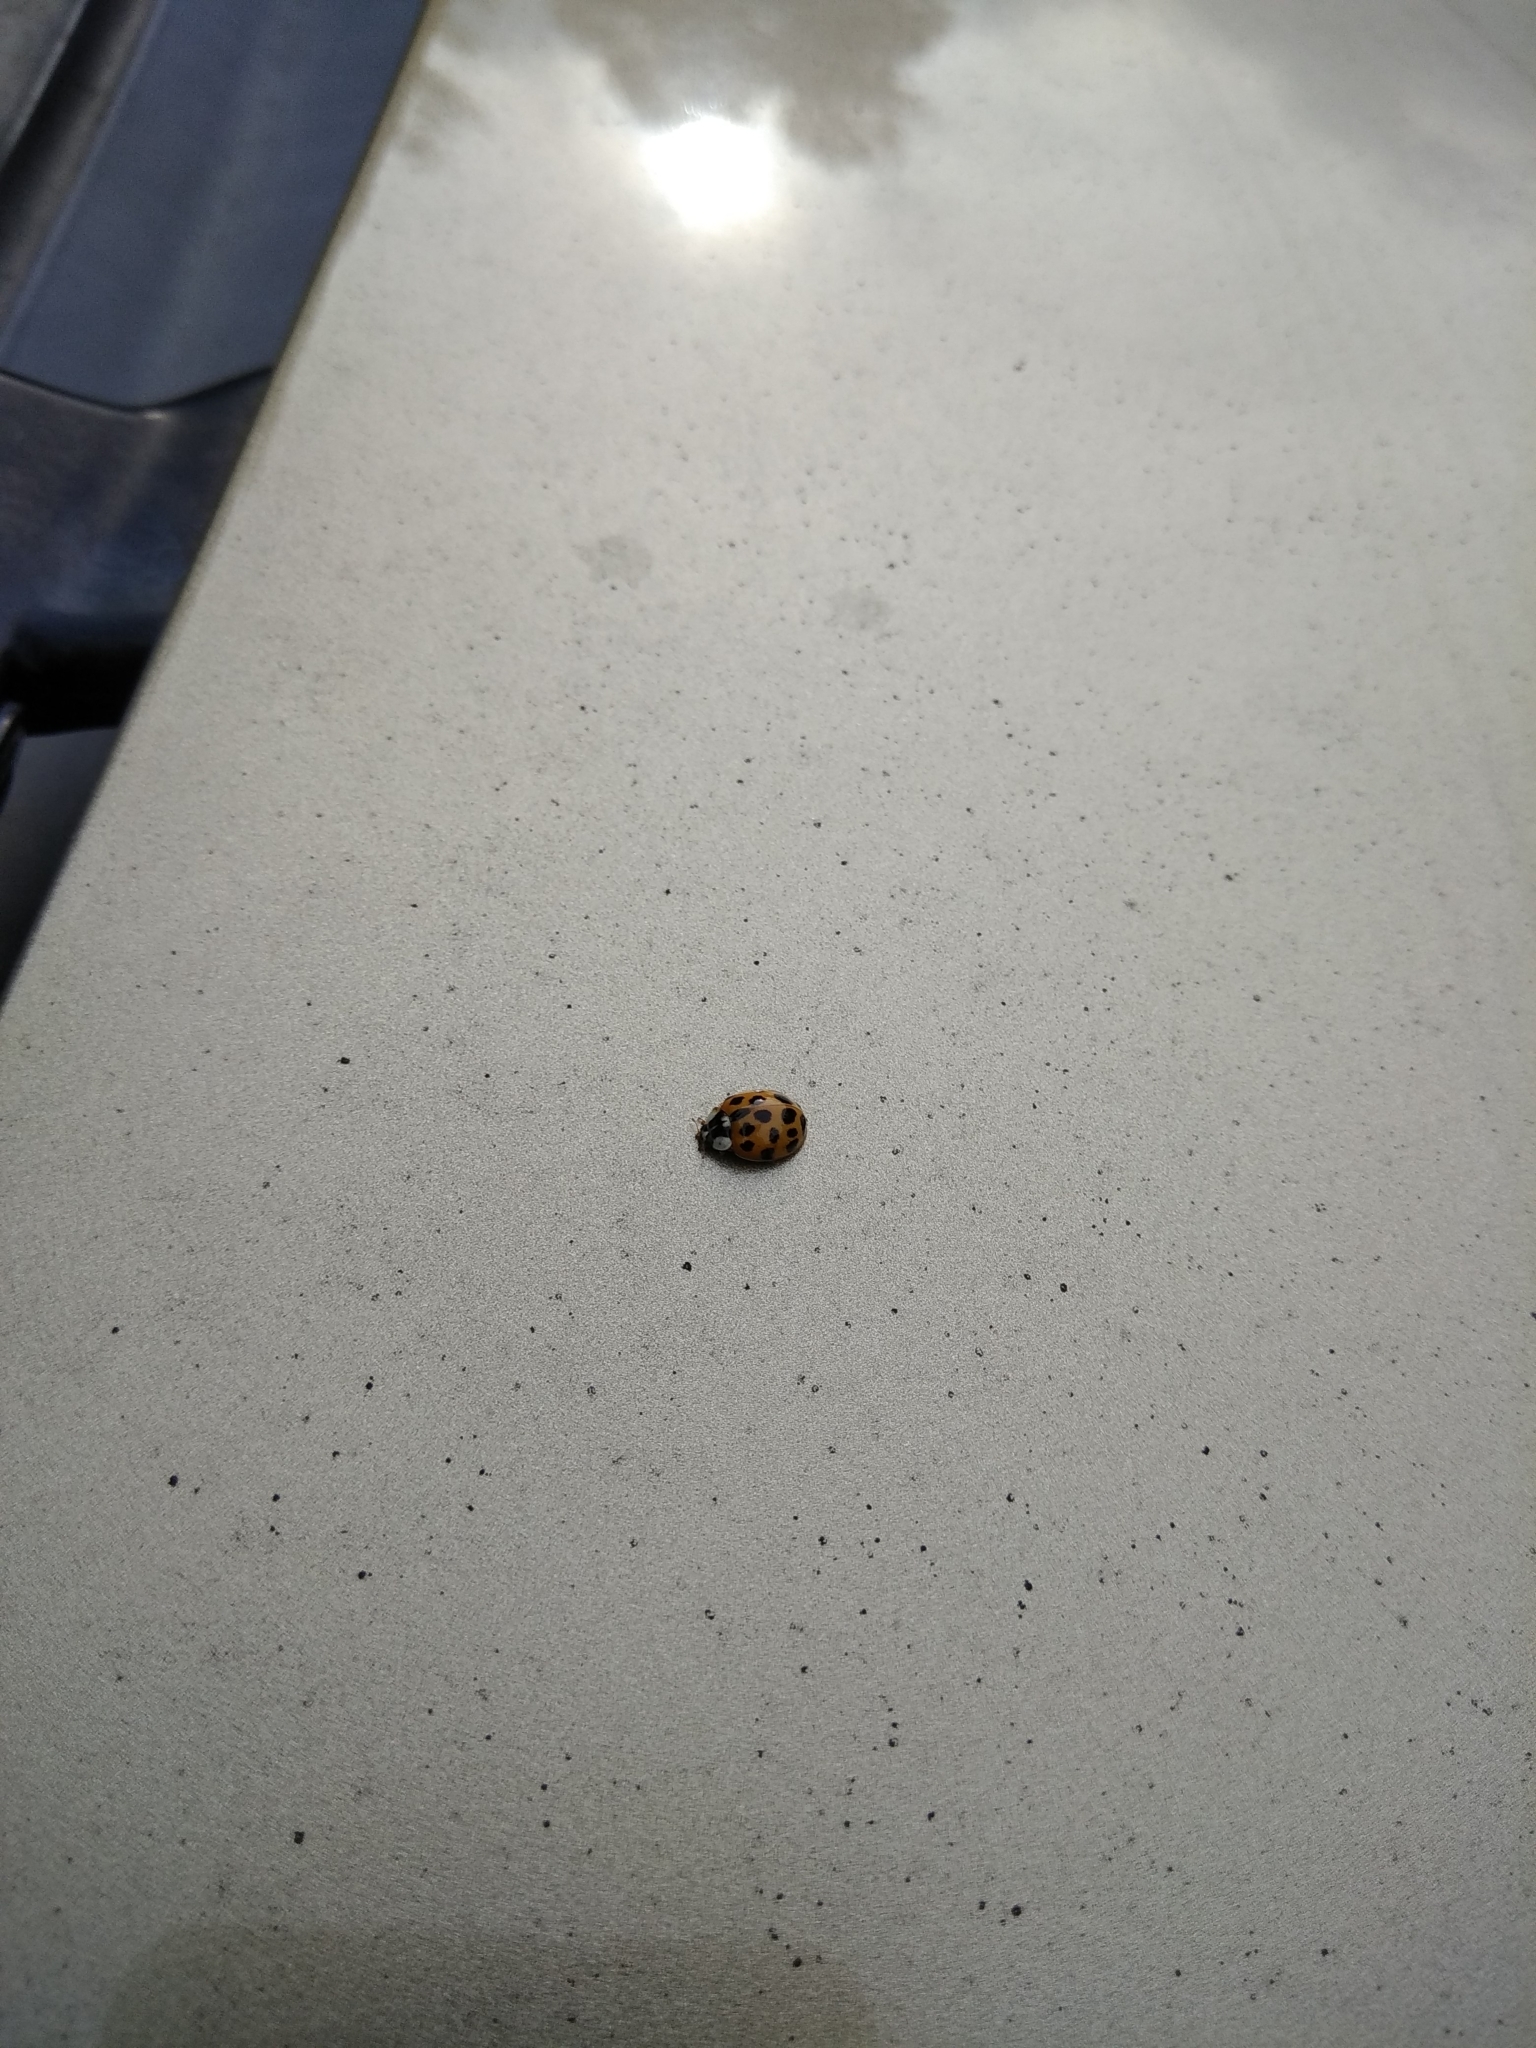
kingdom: Animalia
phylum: Arthropoda
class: Insecta
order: Coleoptera
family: Coccinellidae
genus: Harmonia
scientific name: Harmonia axyridis
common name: Harlequin ladybird
